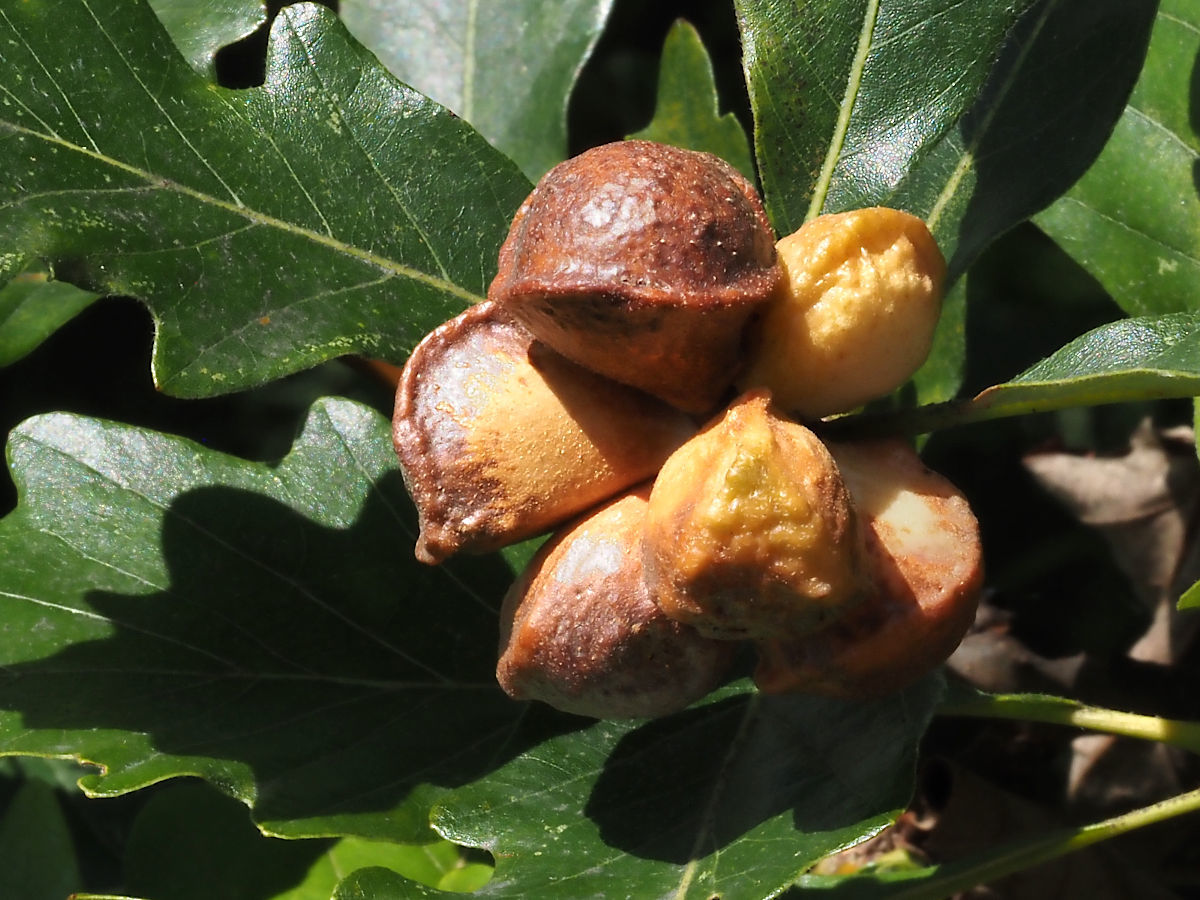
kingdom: Animalia
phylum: Arthropoda
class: Insecta
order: Hymenoptera
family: Cynipidae
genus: Andricus
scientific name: Andricus
